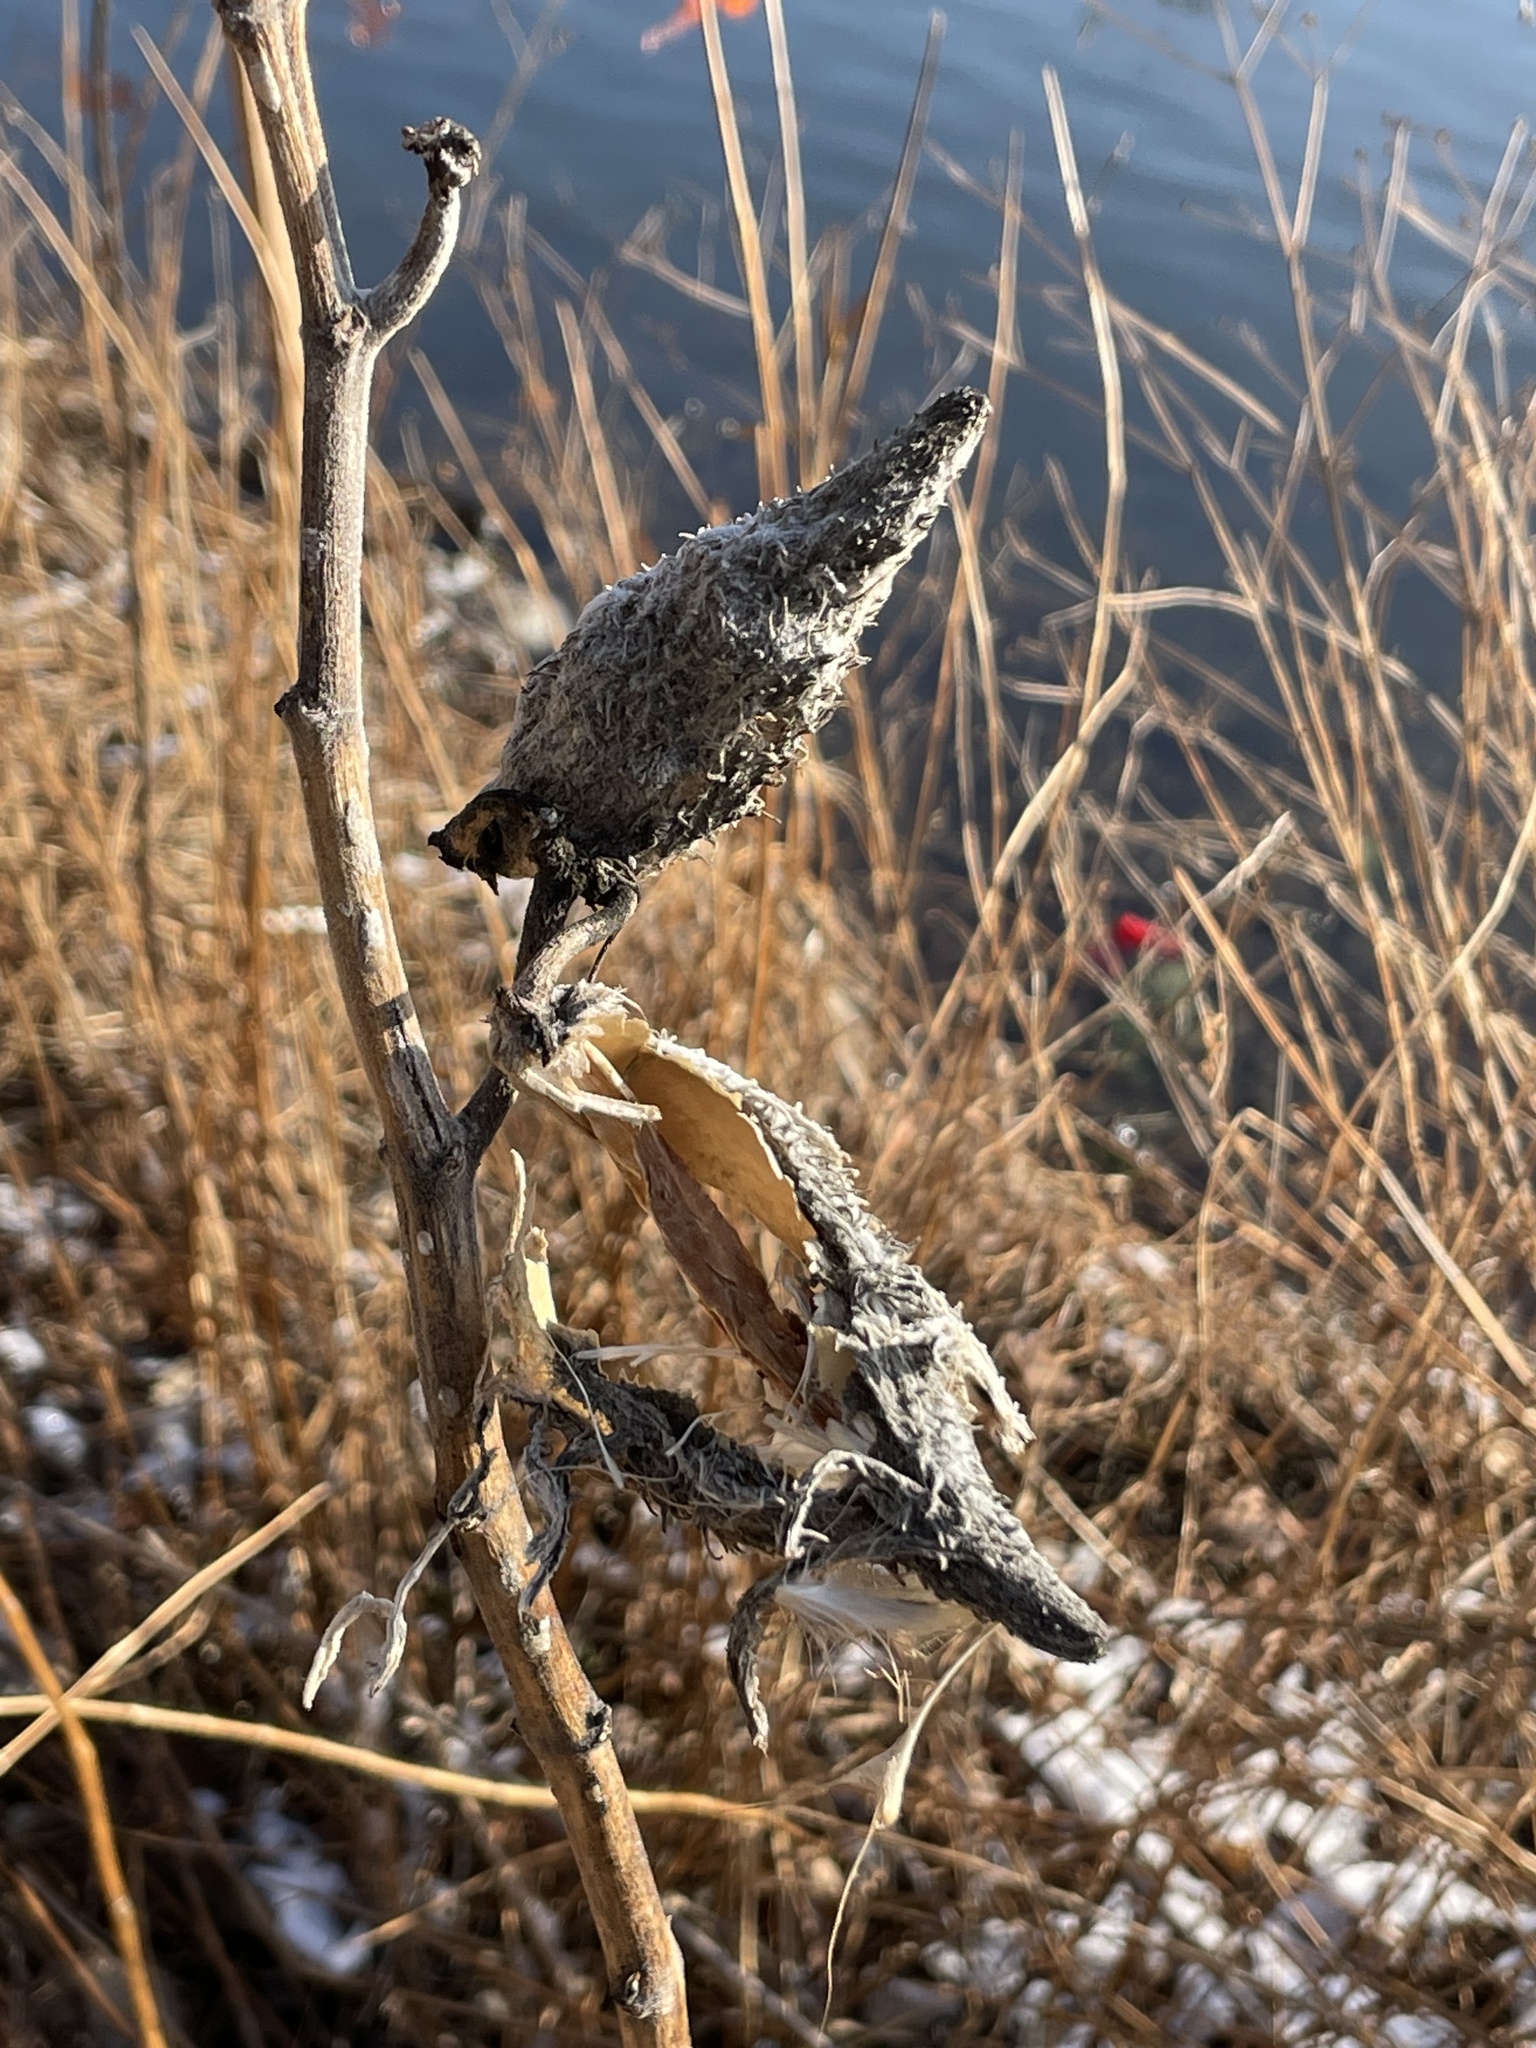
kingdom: Plantae
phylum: Tracheophyta
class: Magnoliopsida
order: Gentianales
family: Apocynaceae
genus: Asclepias
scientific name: Asclepias syriaca
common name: Common milkweed
